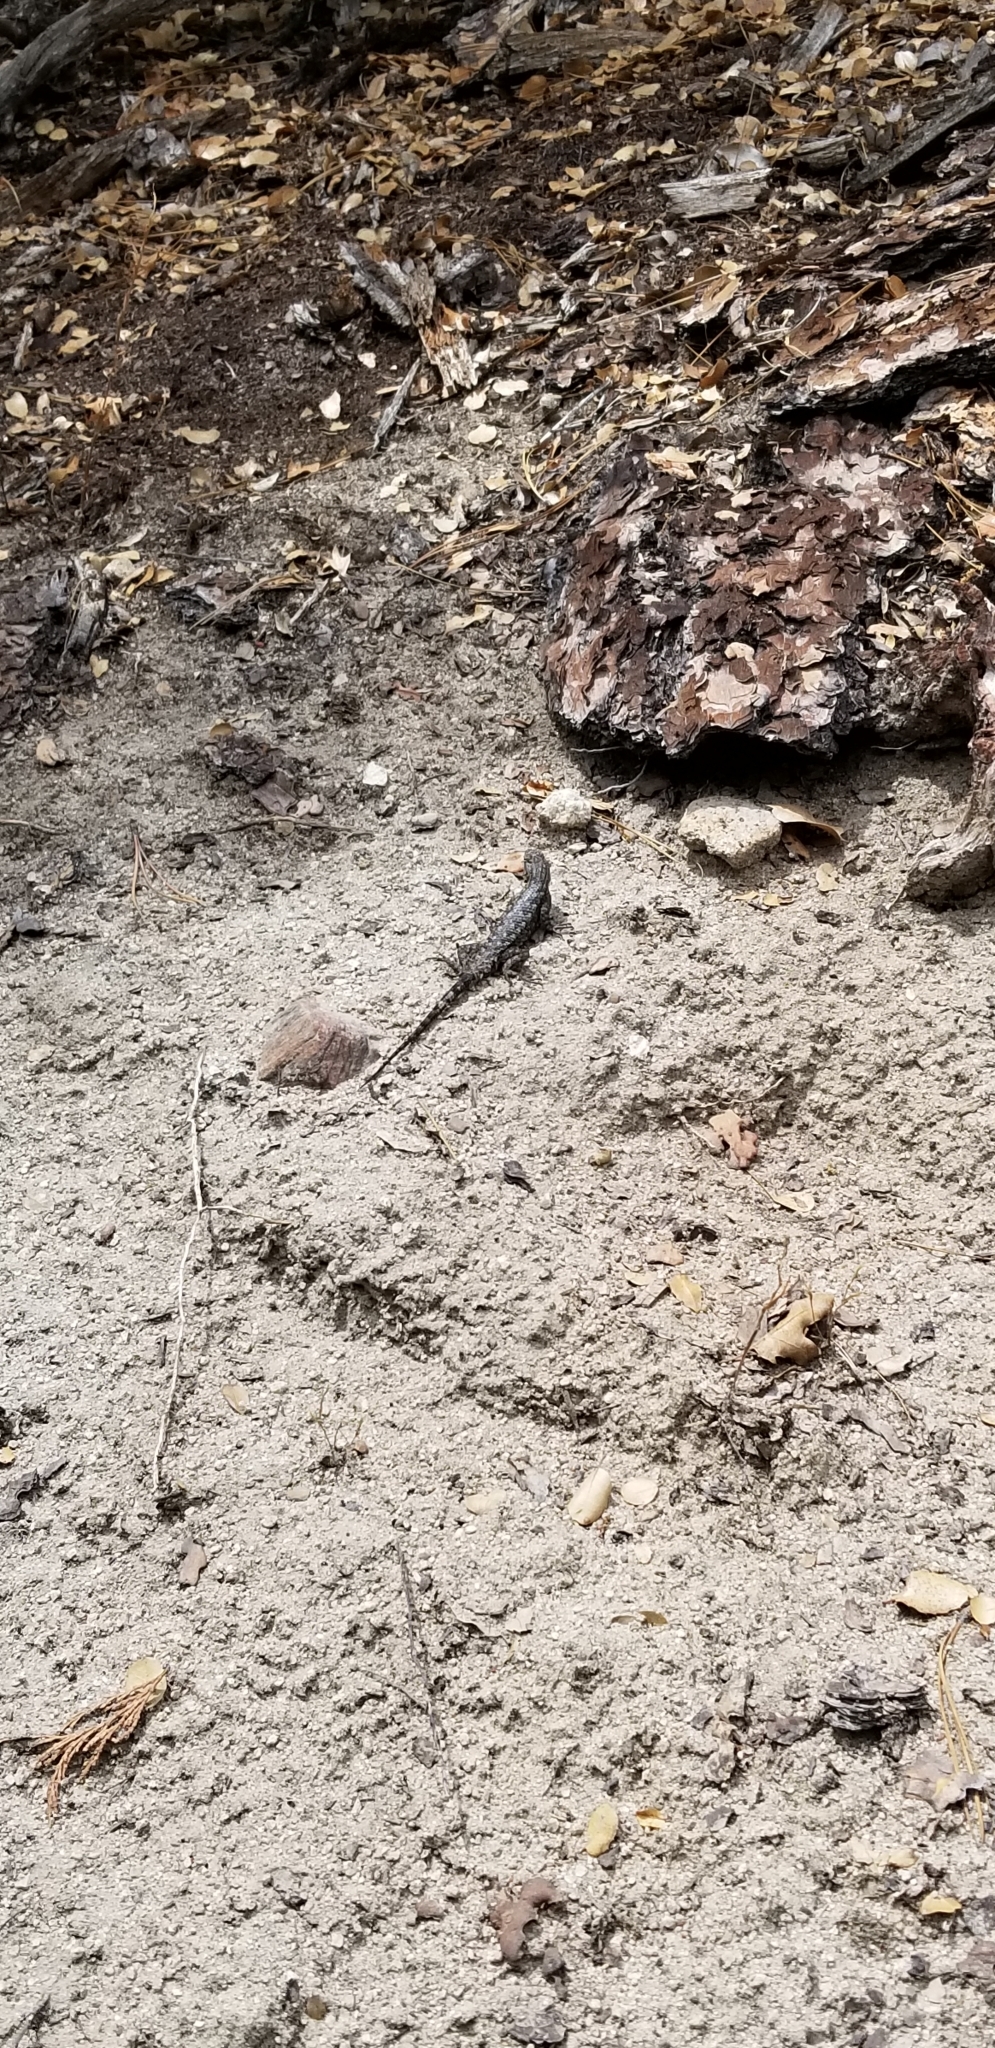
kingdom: Animalia
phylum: Chordata
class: Squamata
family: Phrynosomatidae
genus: Sceloporus
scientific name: Sceloporus occidentalis
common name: Western fence lizard
